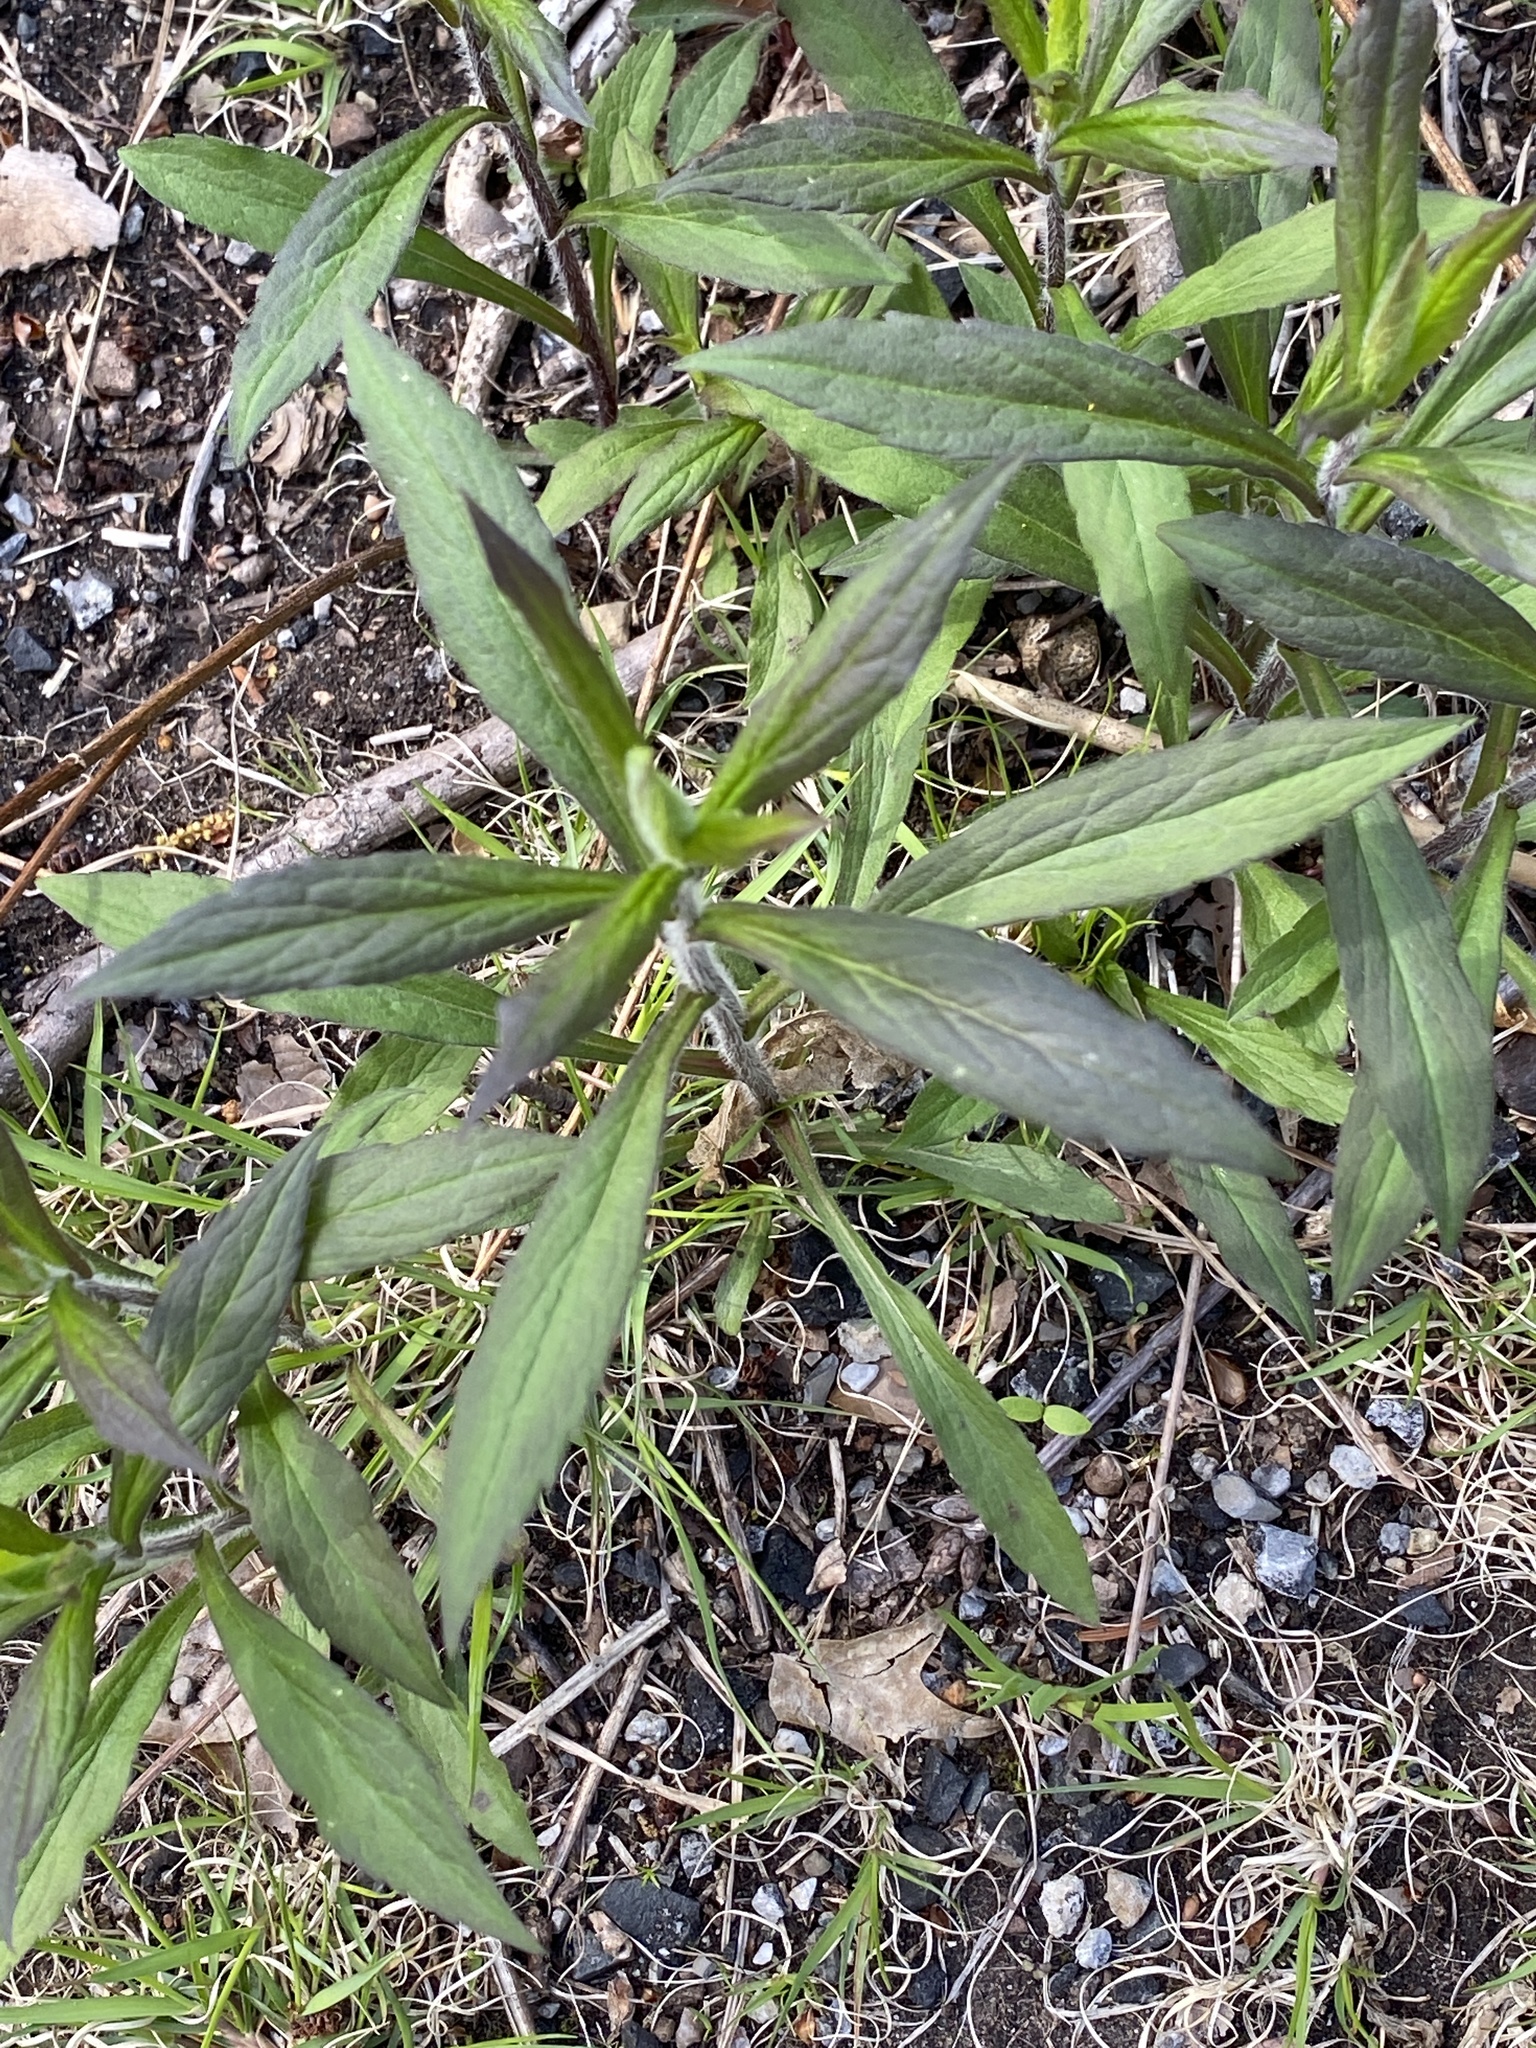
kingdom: Plantae
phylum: Tracheophyta
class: Magnoliopsida
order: Asterales
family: Asteraceae
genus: Solidago
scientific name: Solidago rugosa
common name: Rough-stemmed goldenrod
